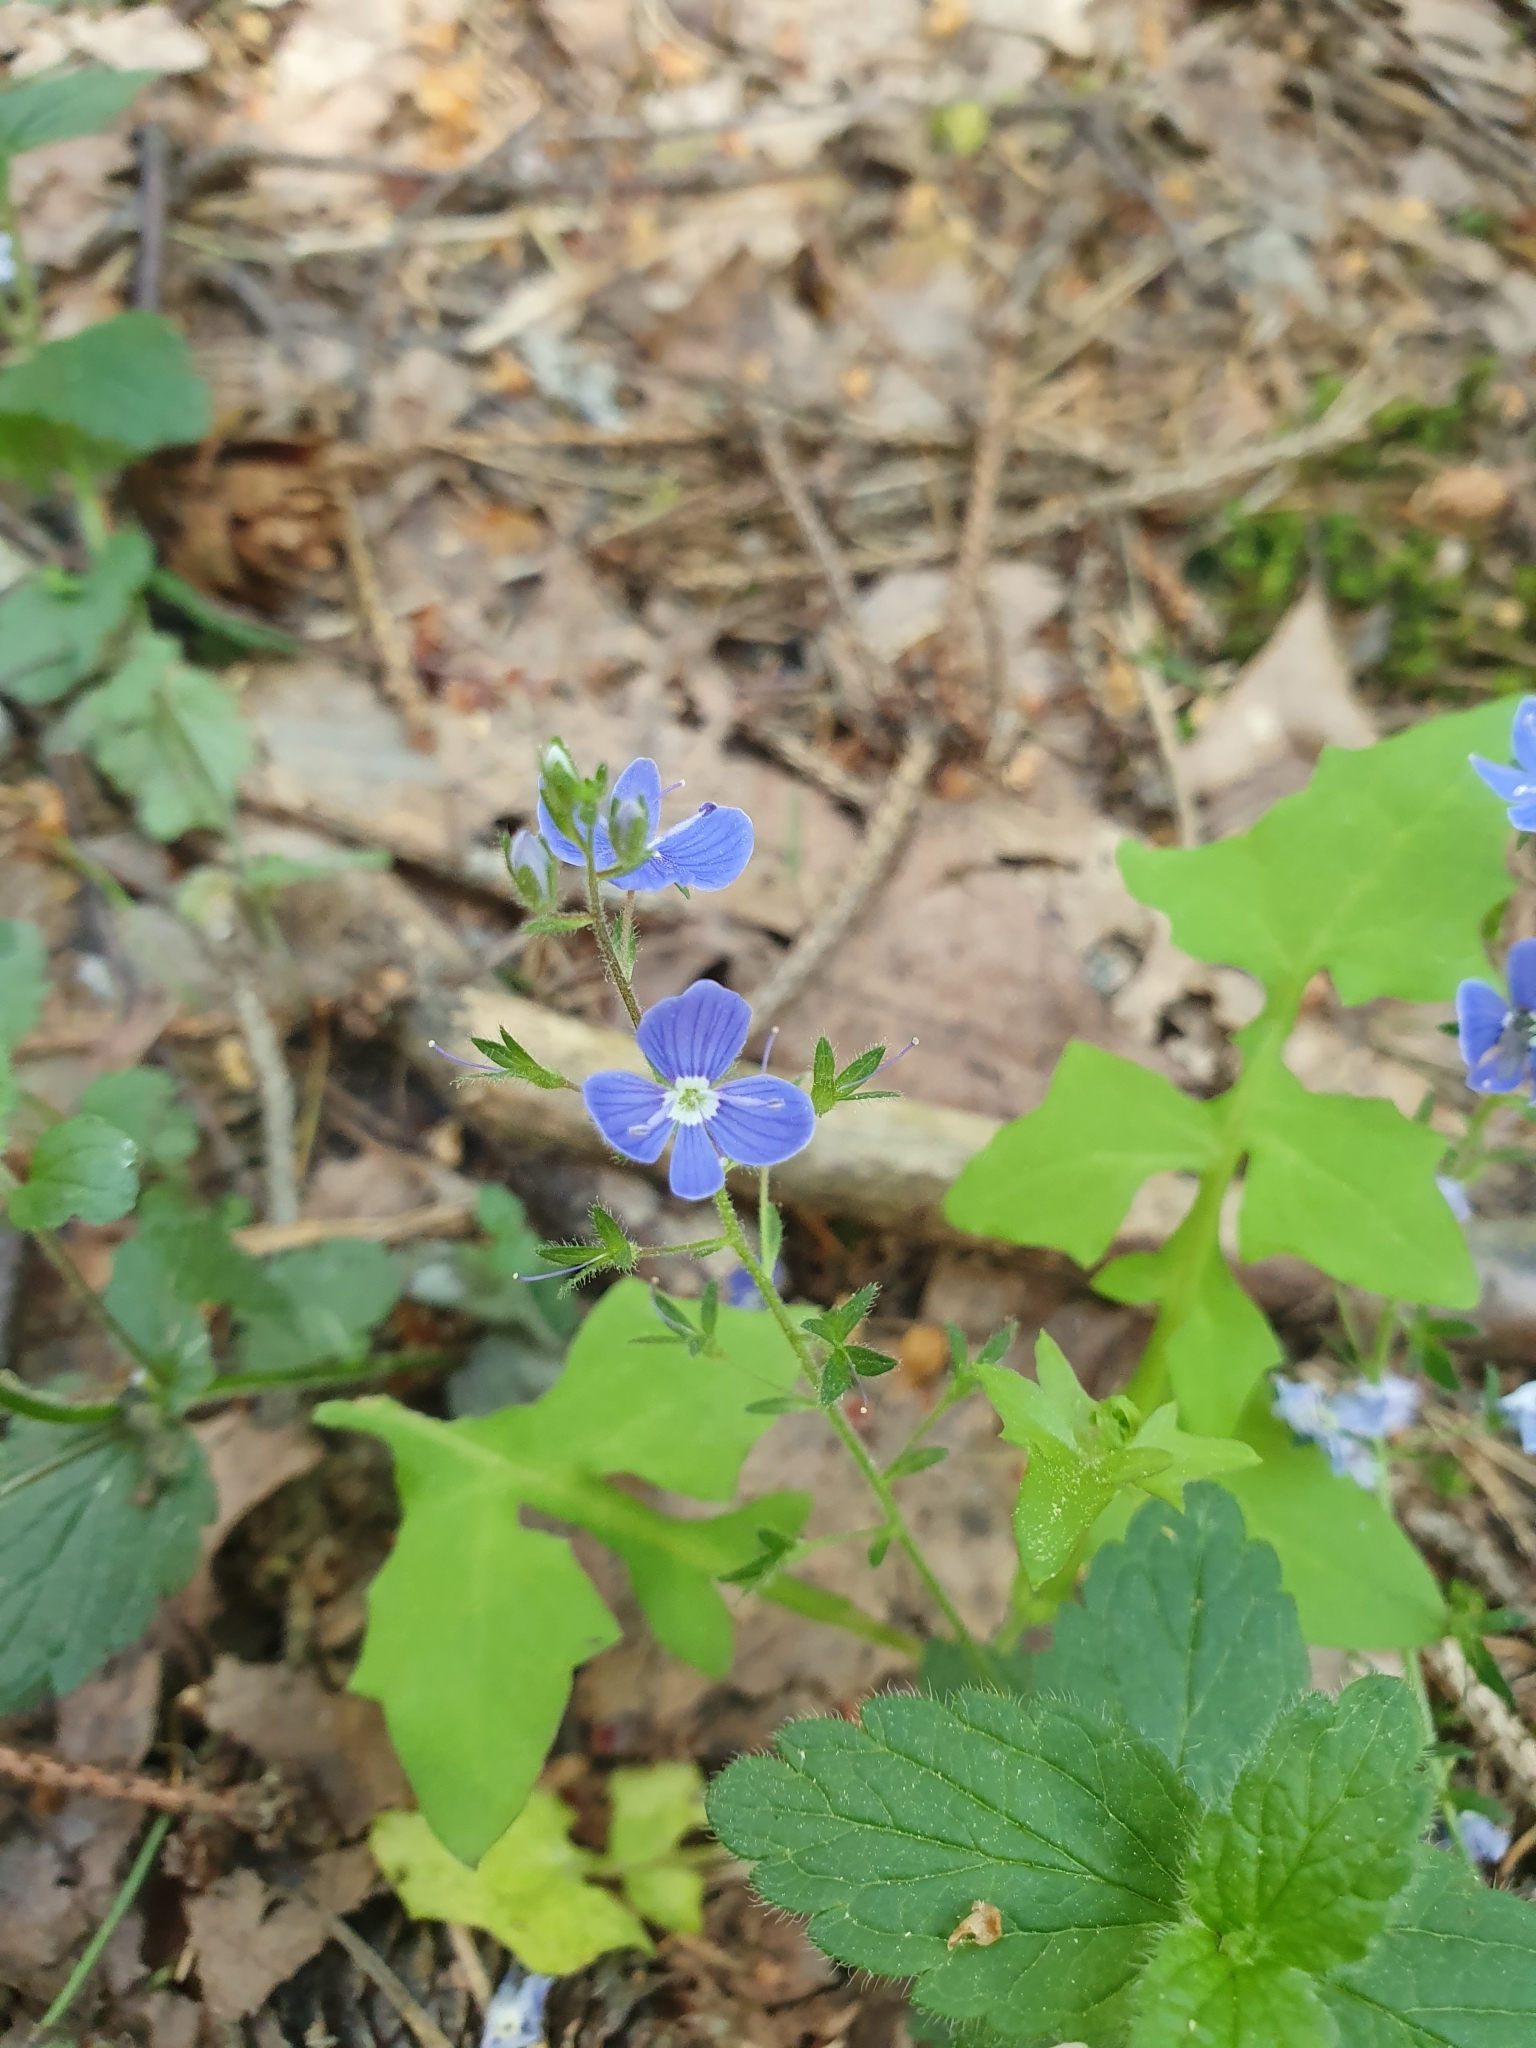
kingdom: Plantae
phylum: Tracheophyta
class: Magnoliopsida
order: Lamiales
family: Plantaginaceae
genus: Veronica
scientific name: Veronica chamaedrys
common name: Germander speedwell
